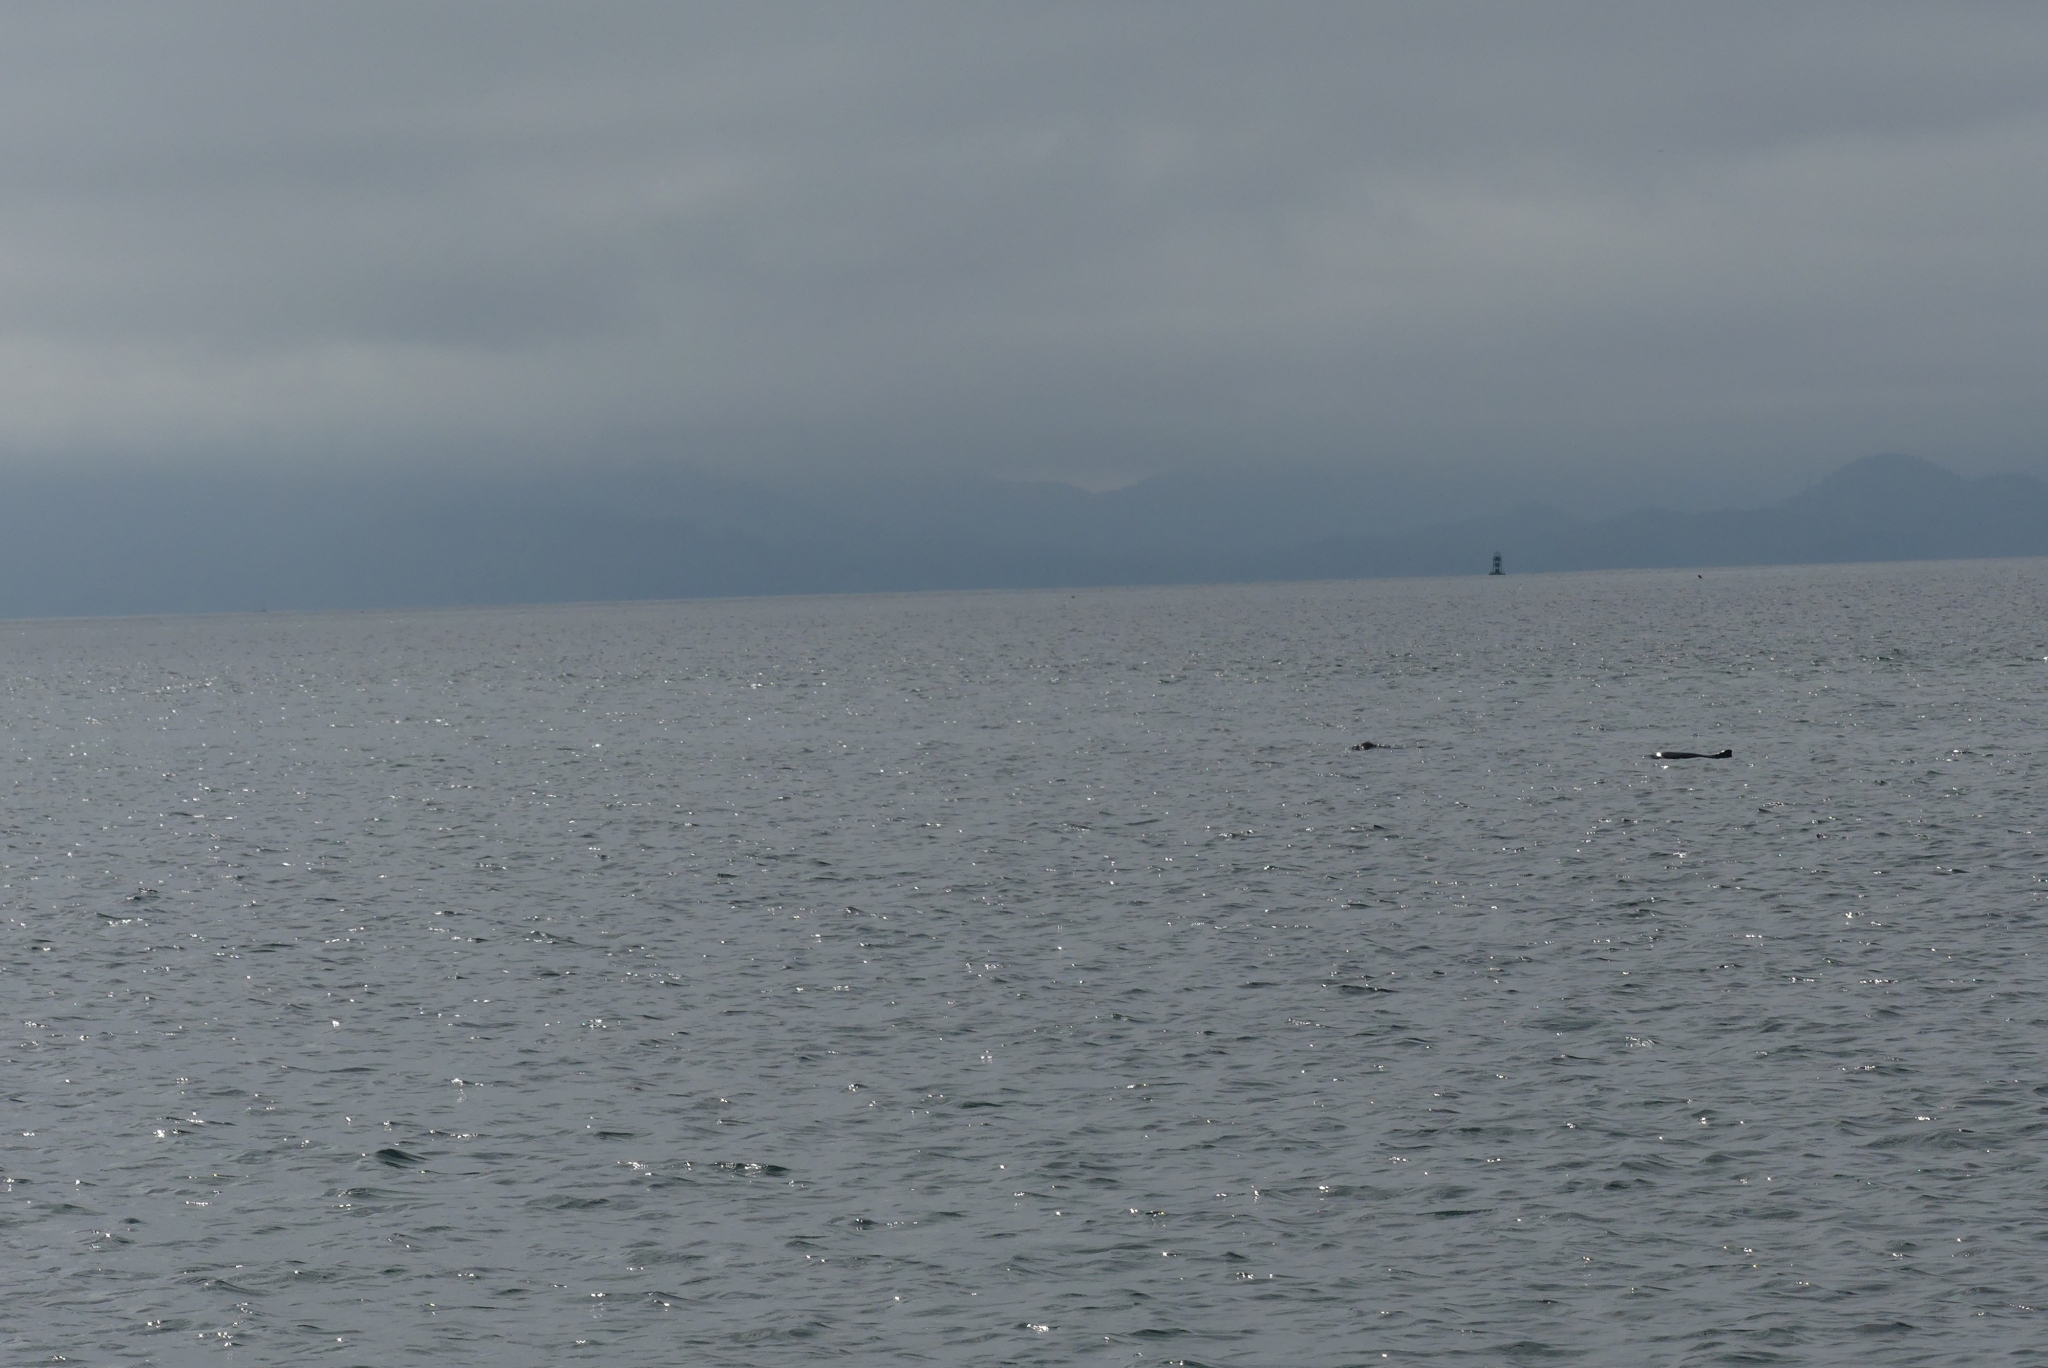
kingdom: Animalia
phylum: Chordata
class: Mammalia
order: Cetacea
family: Phocoenidae
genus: Phocoena
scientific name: Phocoena phocoena
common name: Harbor porpoise
